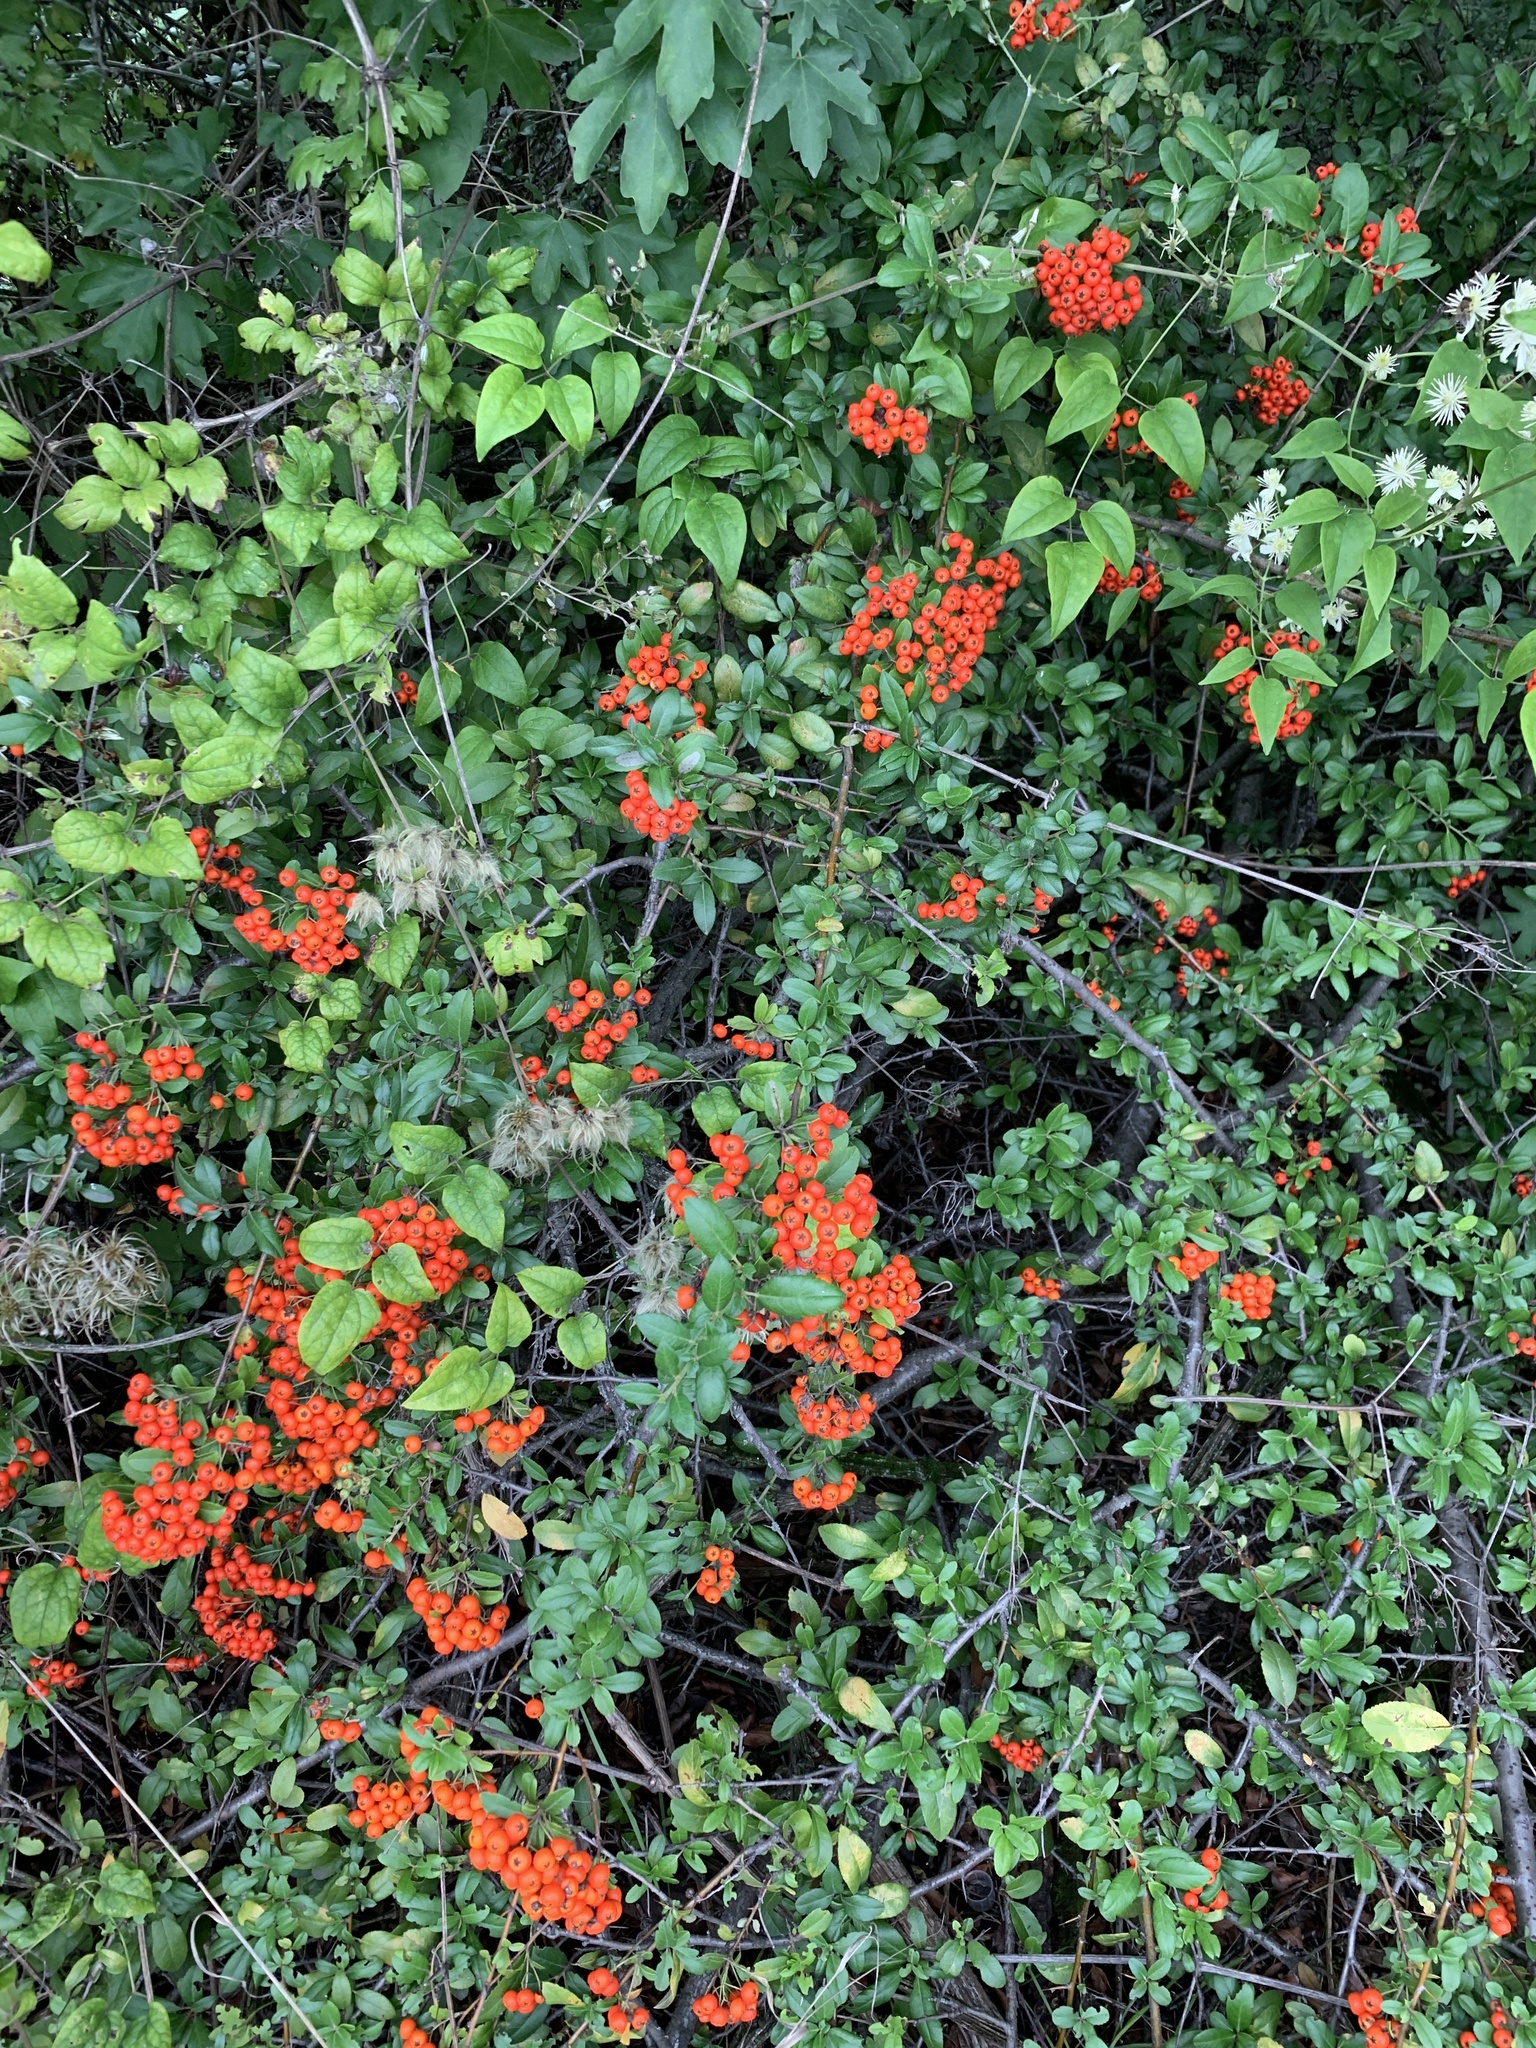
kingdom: Plantae
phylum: Tracheophyta
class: Magnoliopsida
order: Rosales
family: Rosaceae
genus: Pyracantha
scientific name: Pyracantha coccinea
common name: Firethorn
